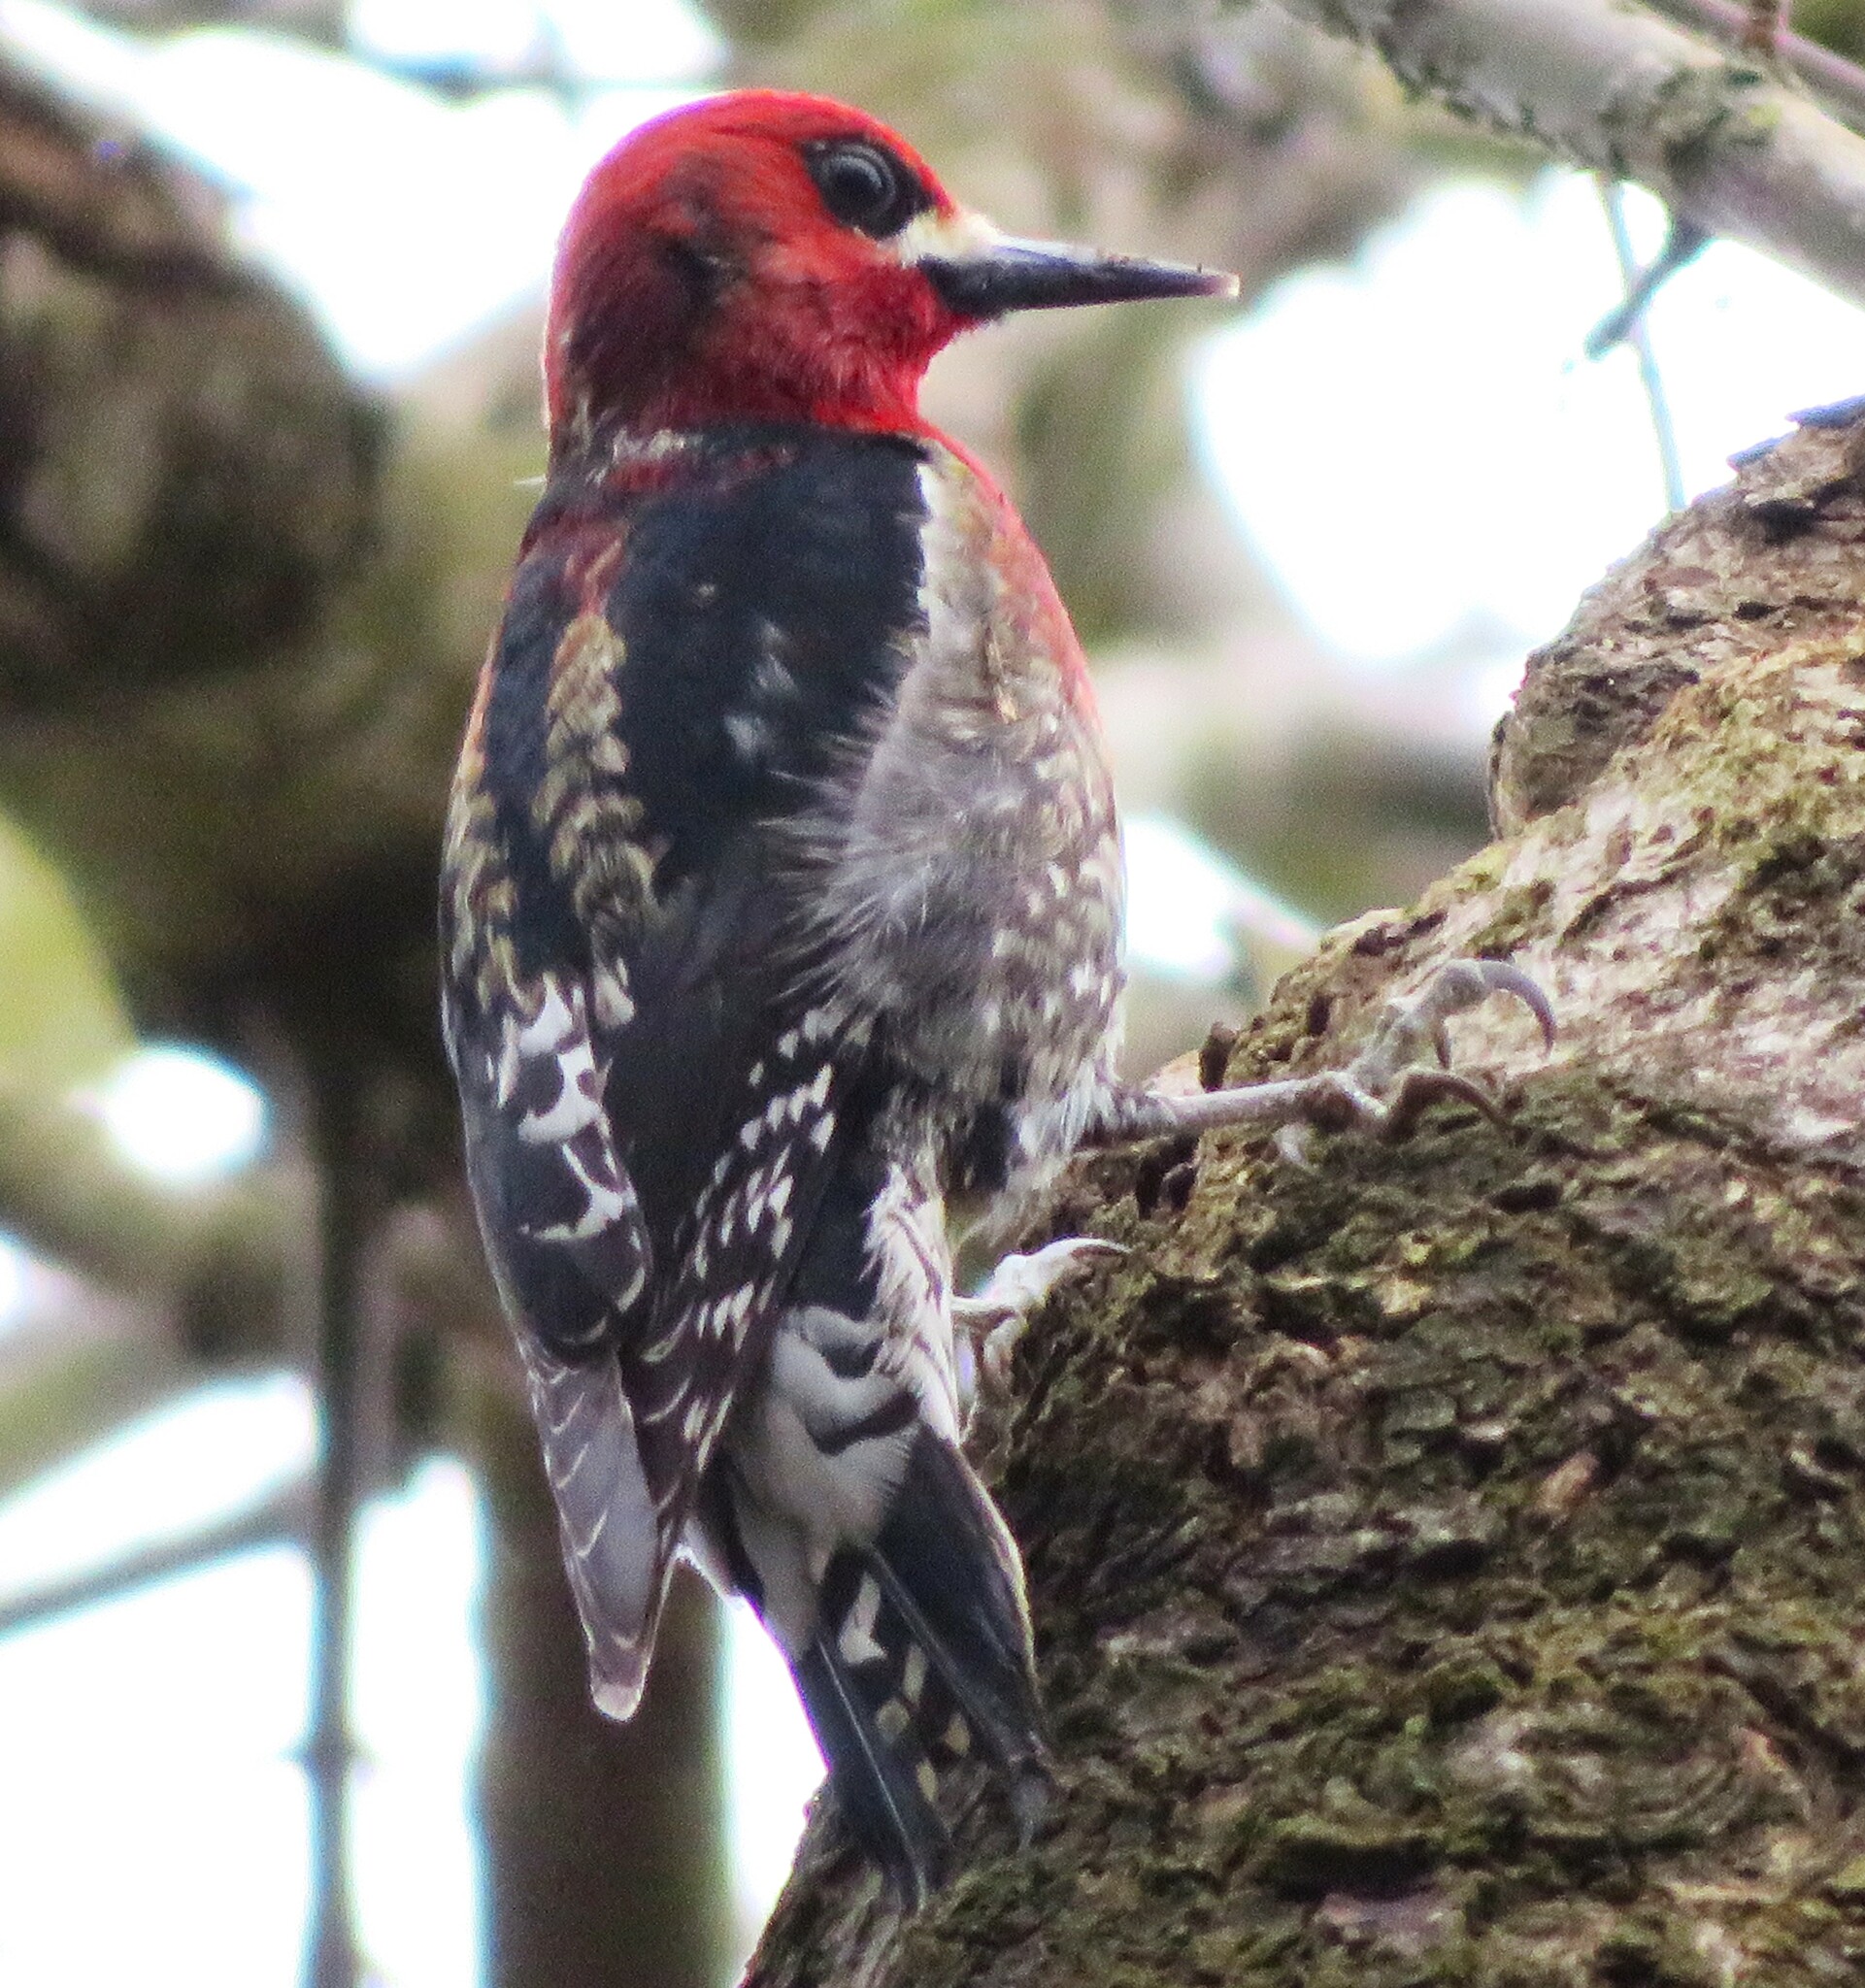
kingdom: Animalia
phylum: Chordata
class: Aves
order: Piciformes
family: Picidae
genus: Sphyrapicus
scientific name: Sphyrapicus ruber
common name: Red-breasted sapsucker
